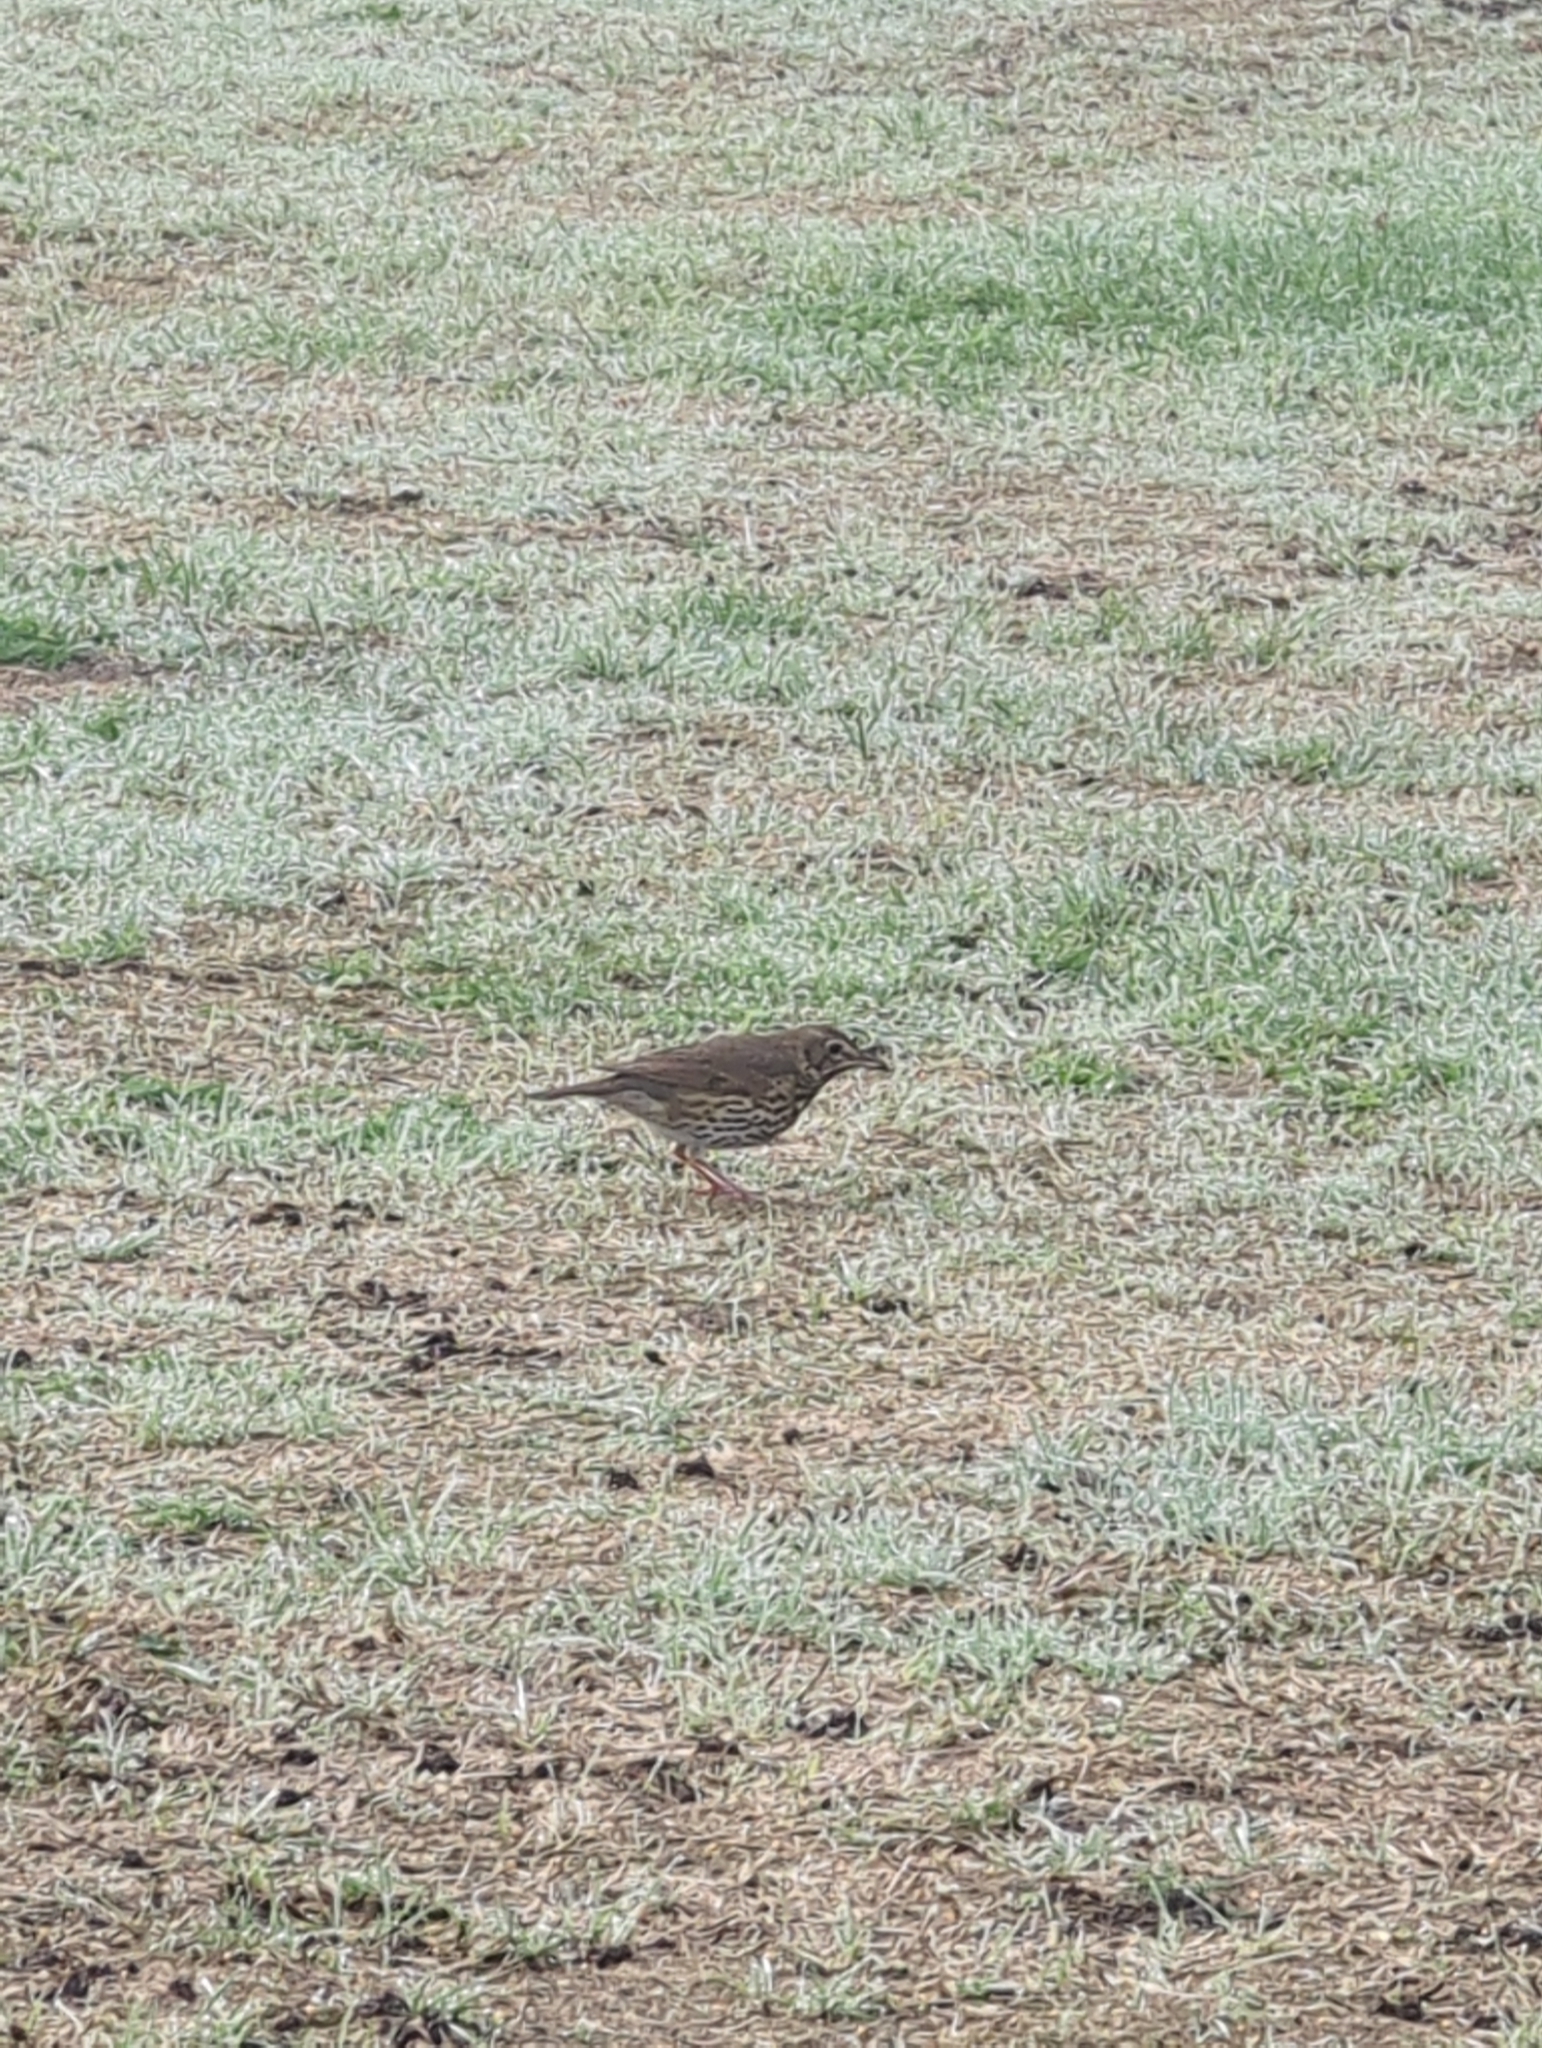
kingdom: Animalia
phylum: Chordata
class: Aves
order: Passeriformes
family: Turdidae
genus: Turdus
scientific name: Turdus philomelos
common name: Song thrush
